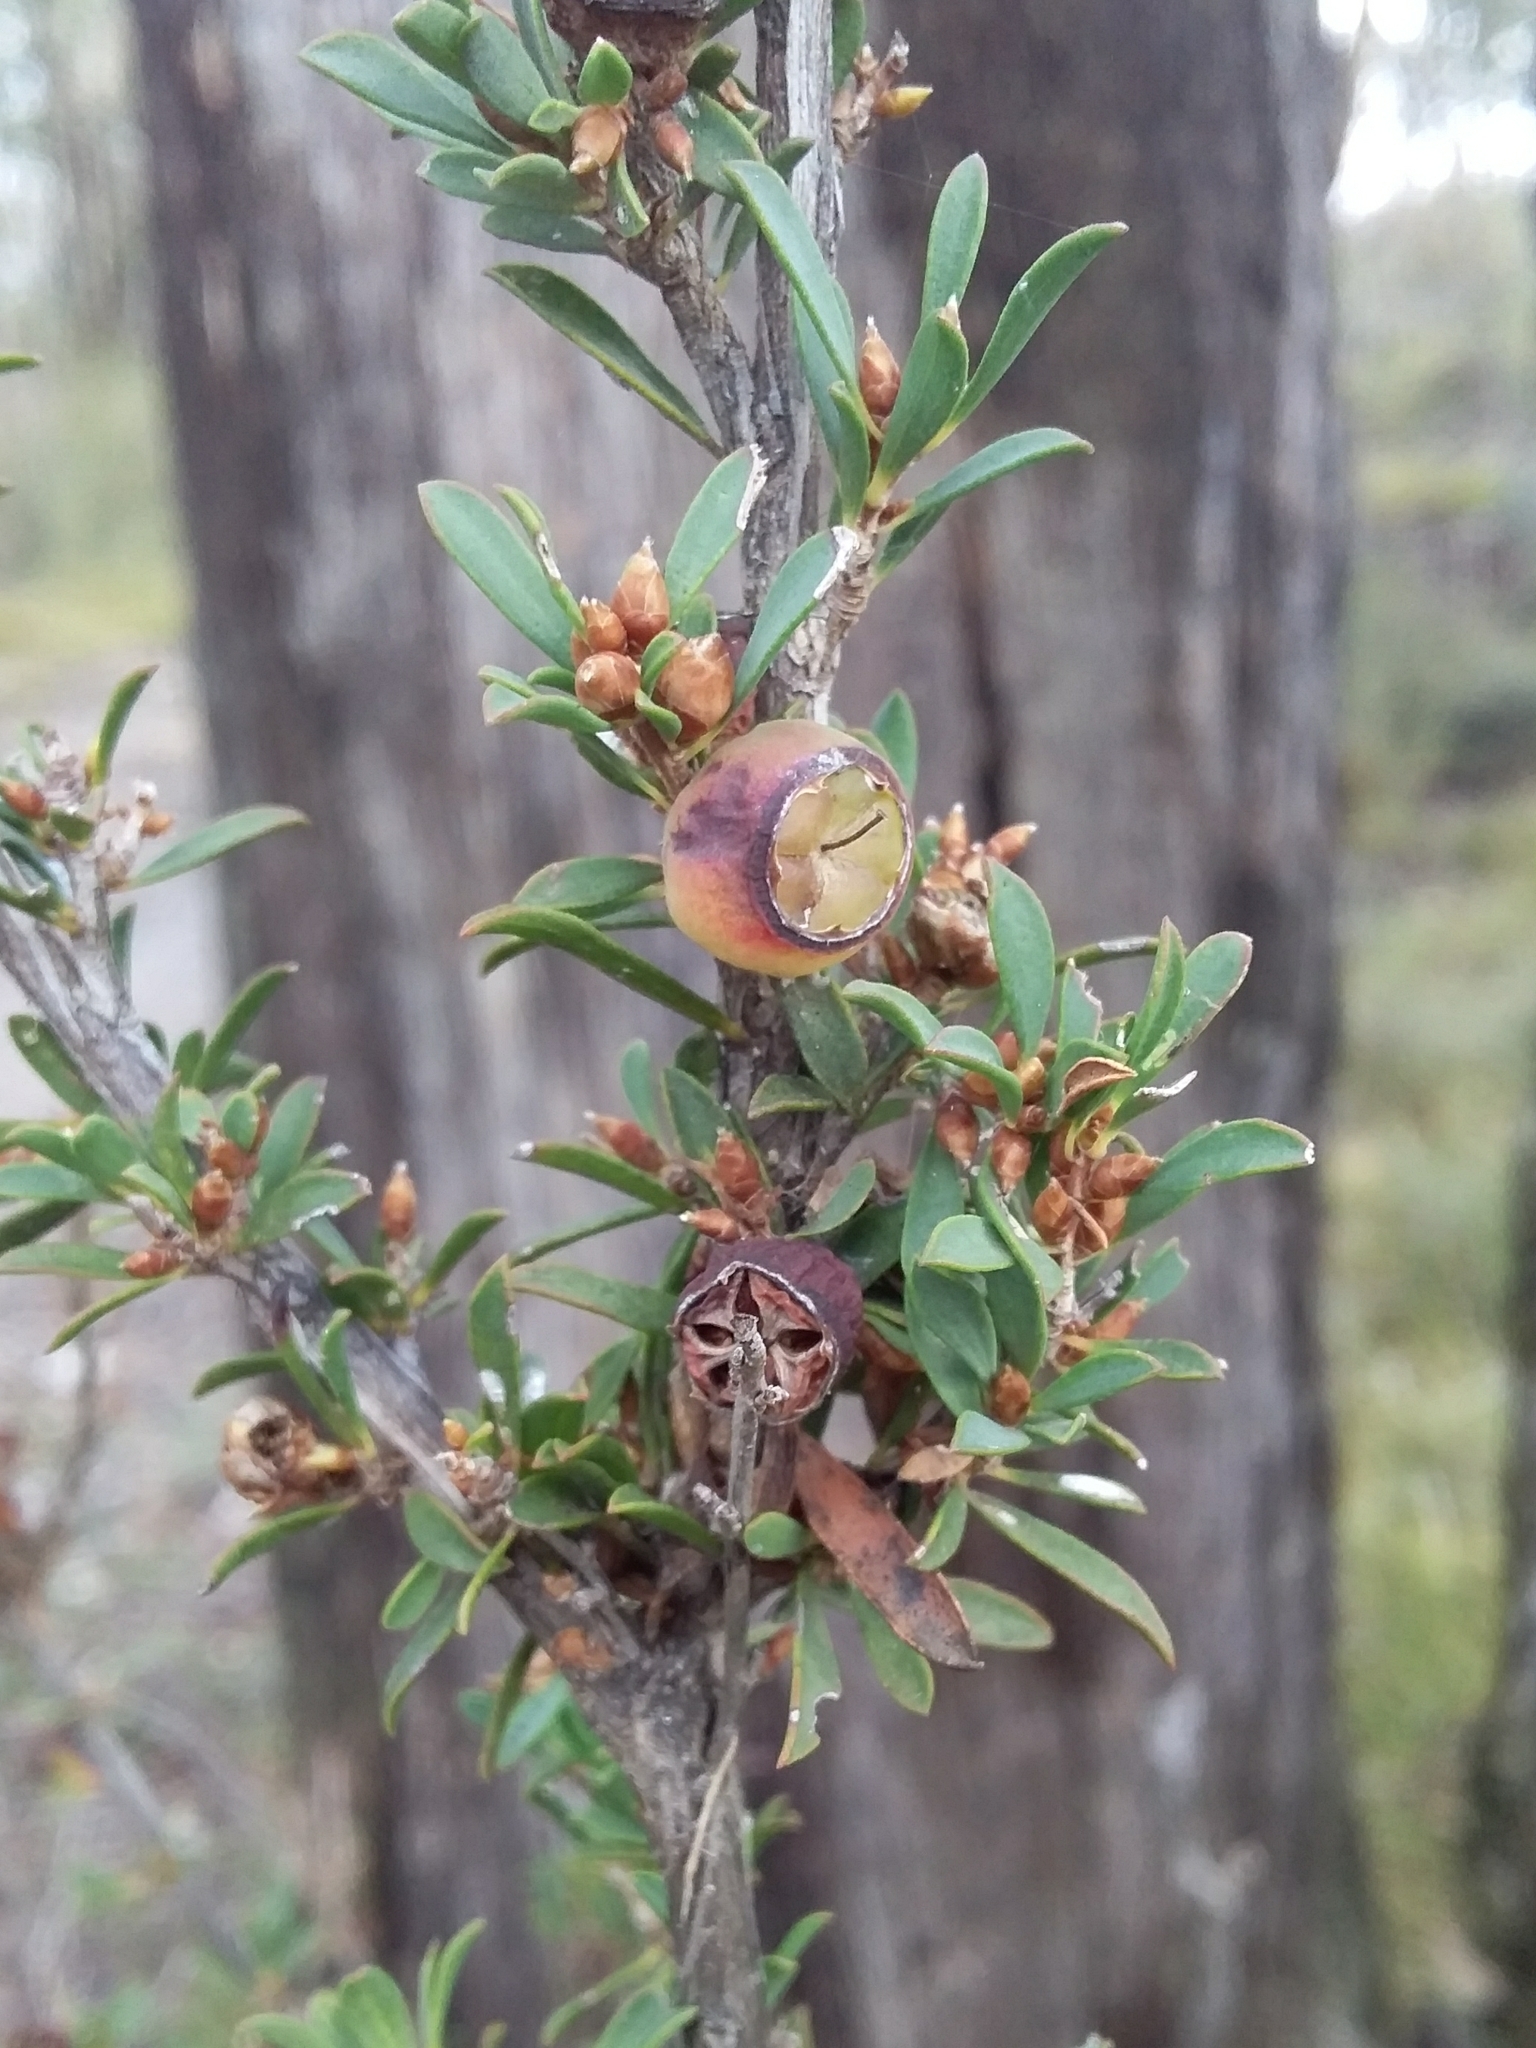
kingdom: Plantae
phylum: Tracheophyta
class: Magnoliopsida
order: Myrtales
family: Myrtaceae
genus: Leptospermum
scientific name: Leptospermum myrsinoides
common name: Heath teatree
